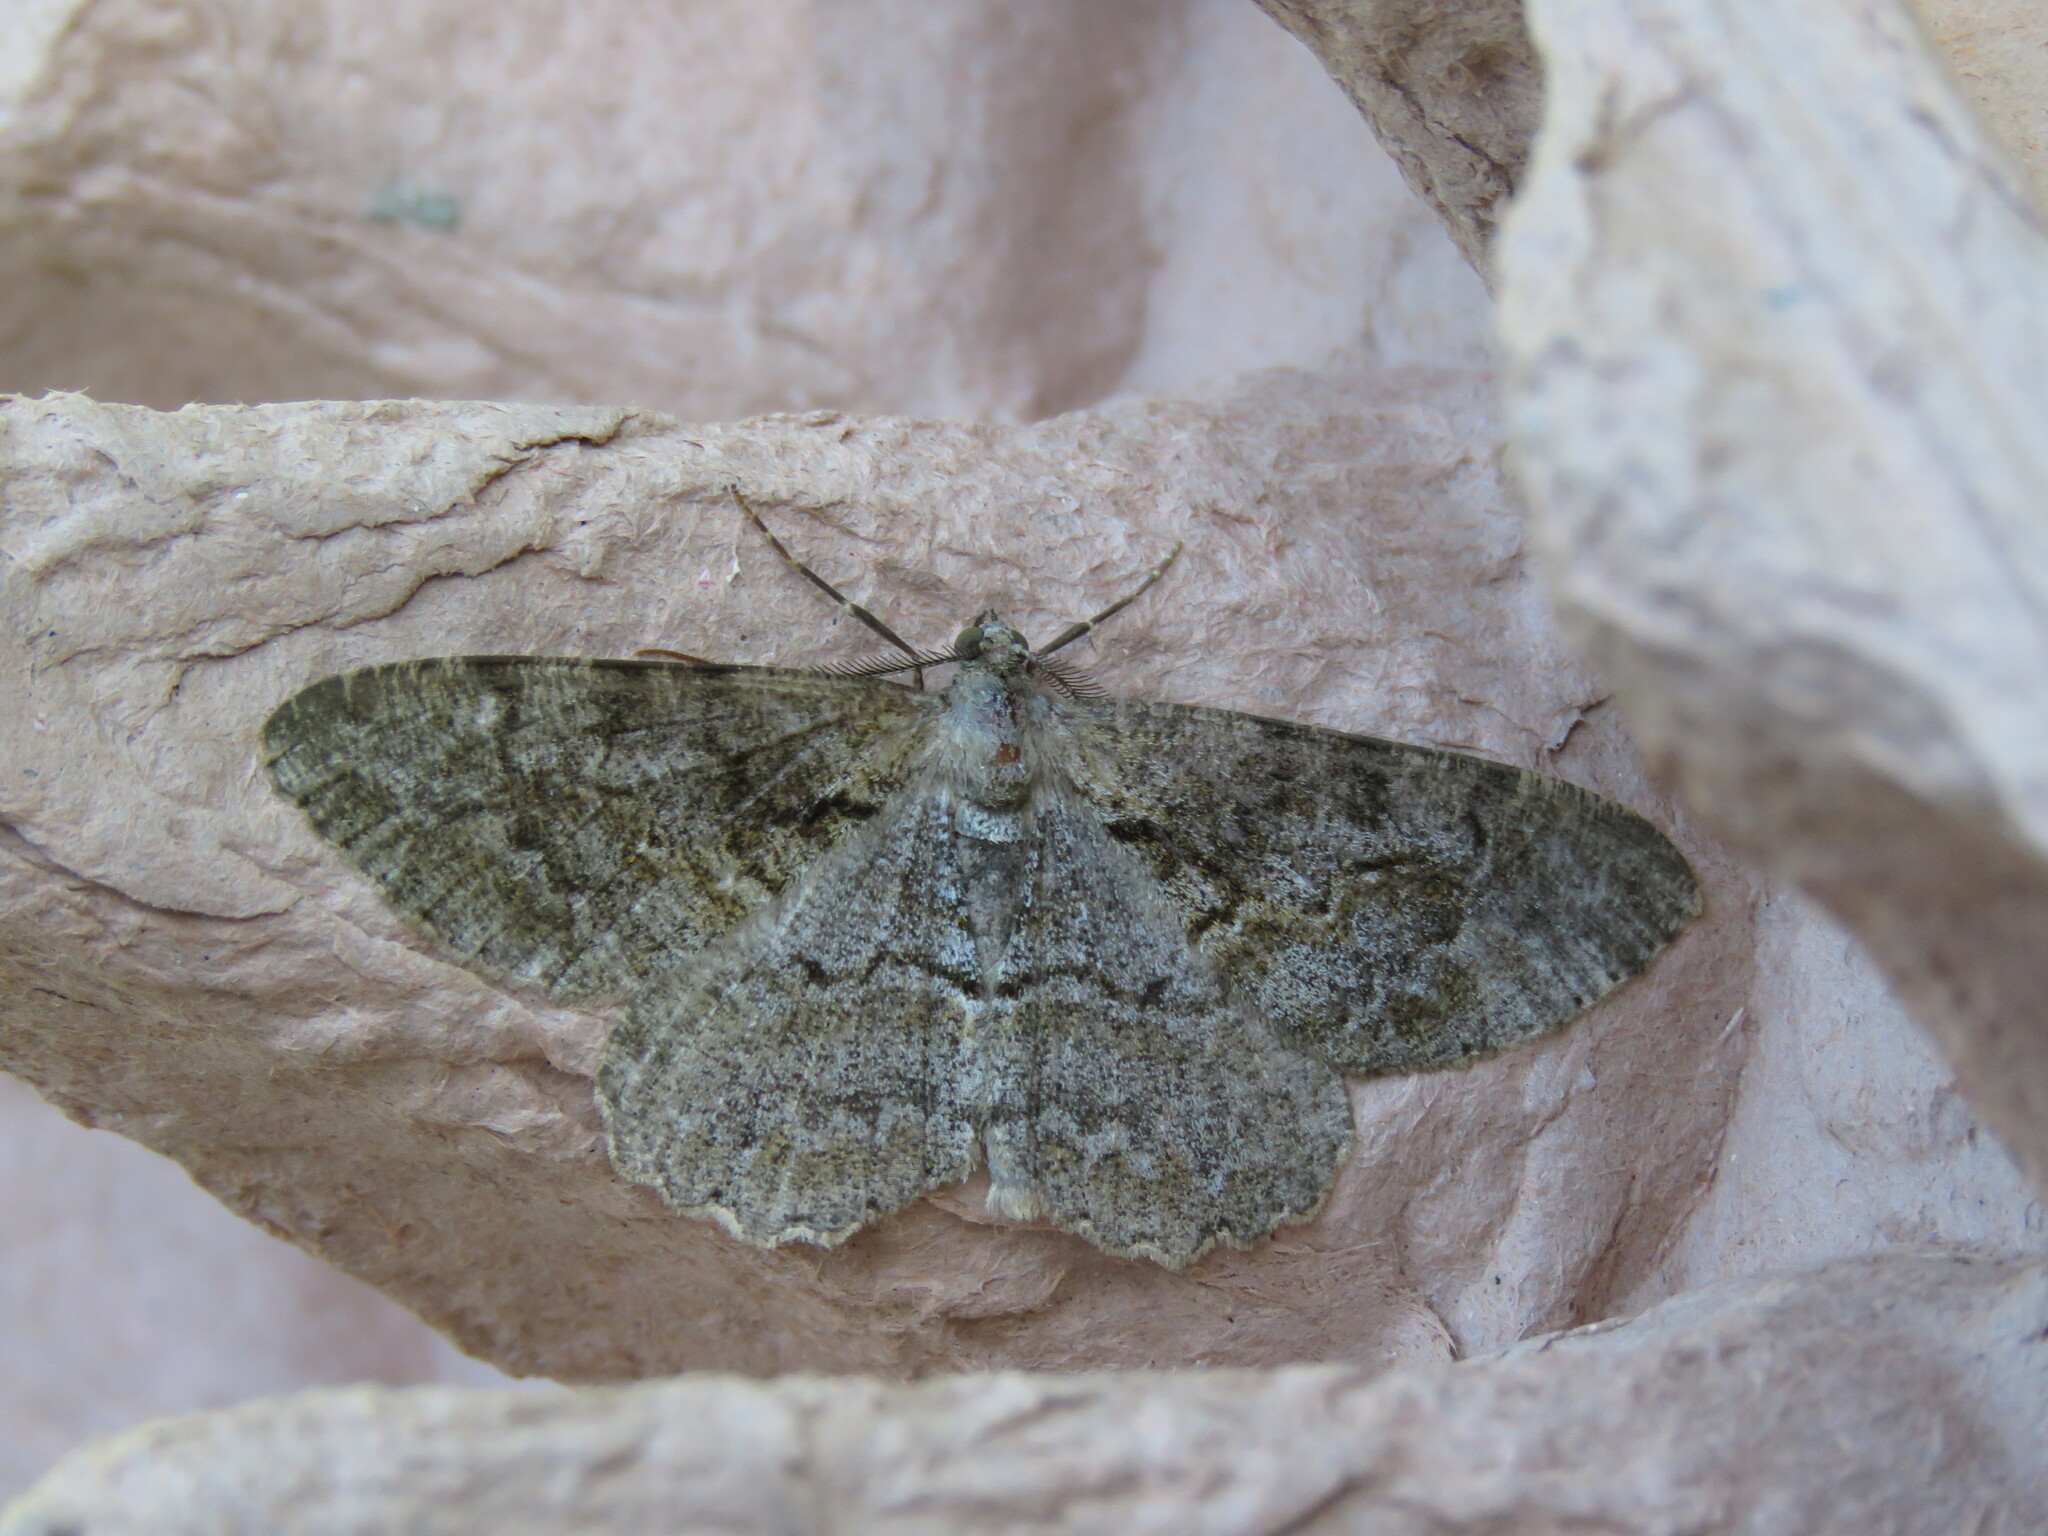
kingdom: Animalia
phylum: Arthropoda
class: Insecta
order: Lepidoptera
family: Geometridae
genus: Alcis
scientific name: Alcis repandata
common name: Mottled beauty
